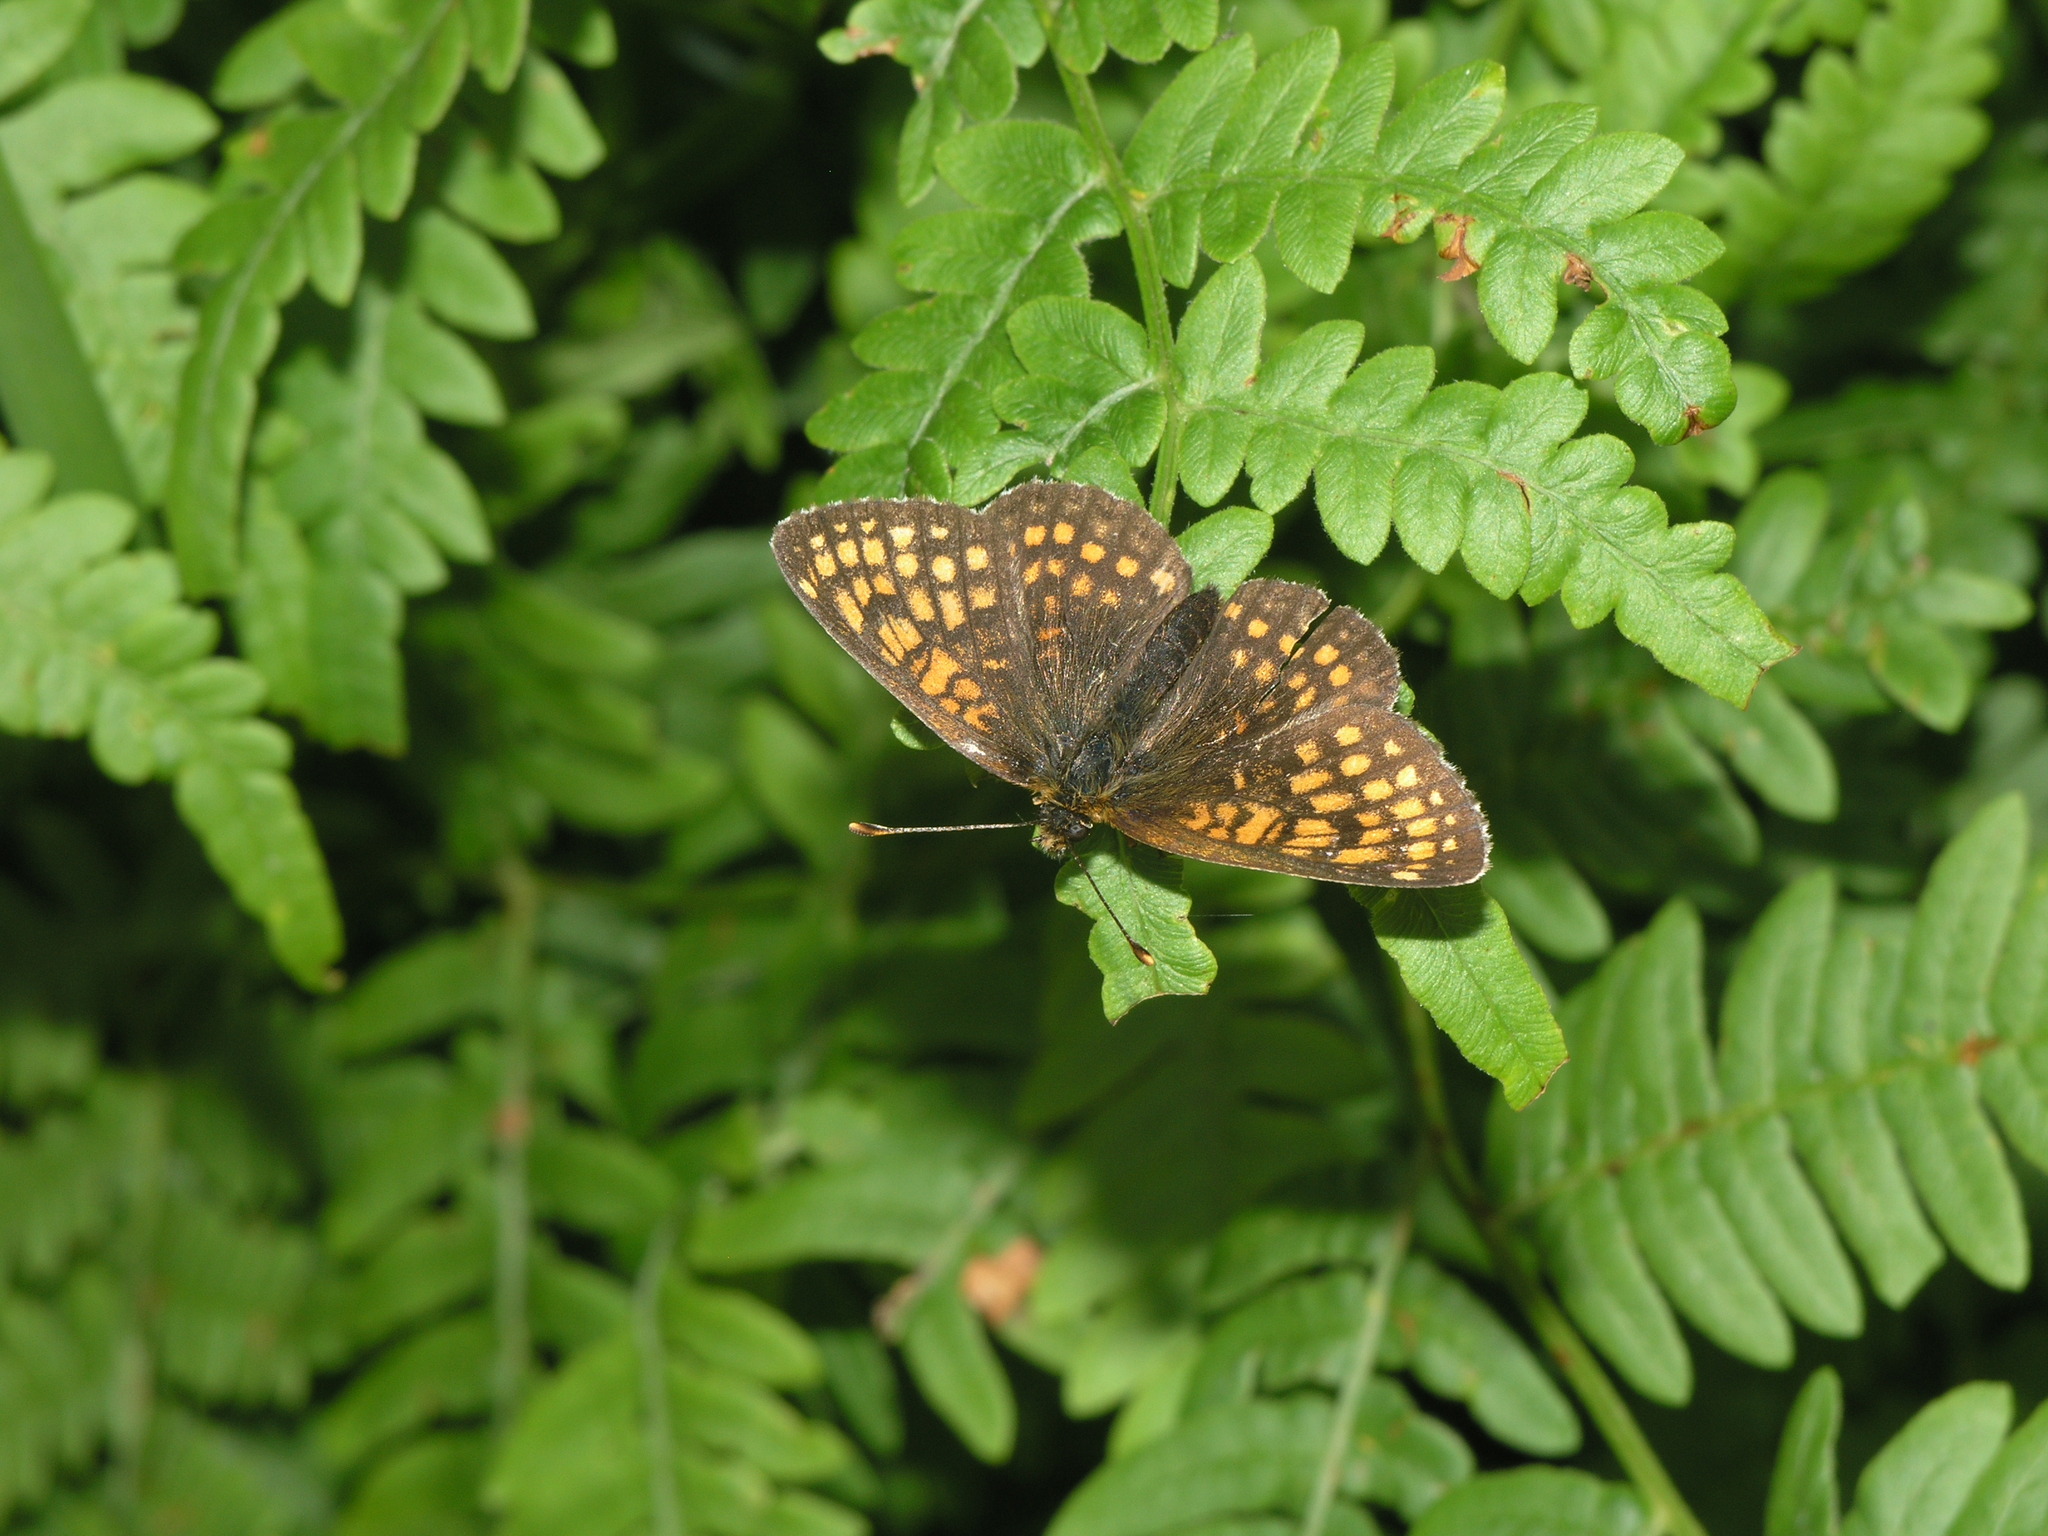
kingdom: Plantae
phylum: Tracheophyta
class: Polypodiopsida
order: Polypodiales
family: Dennstaedtiaceae
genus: Pteridium
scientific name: Pteridium aquilinum
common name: Bracken
